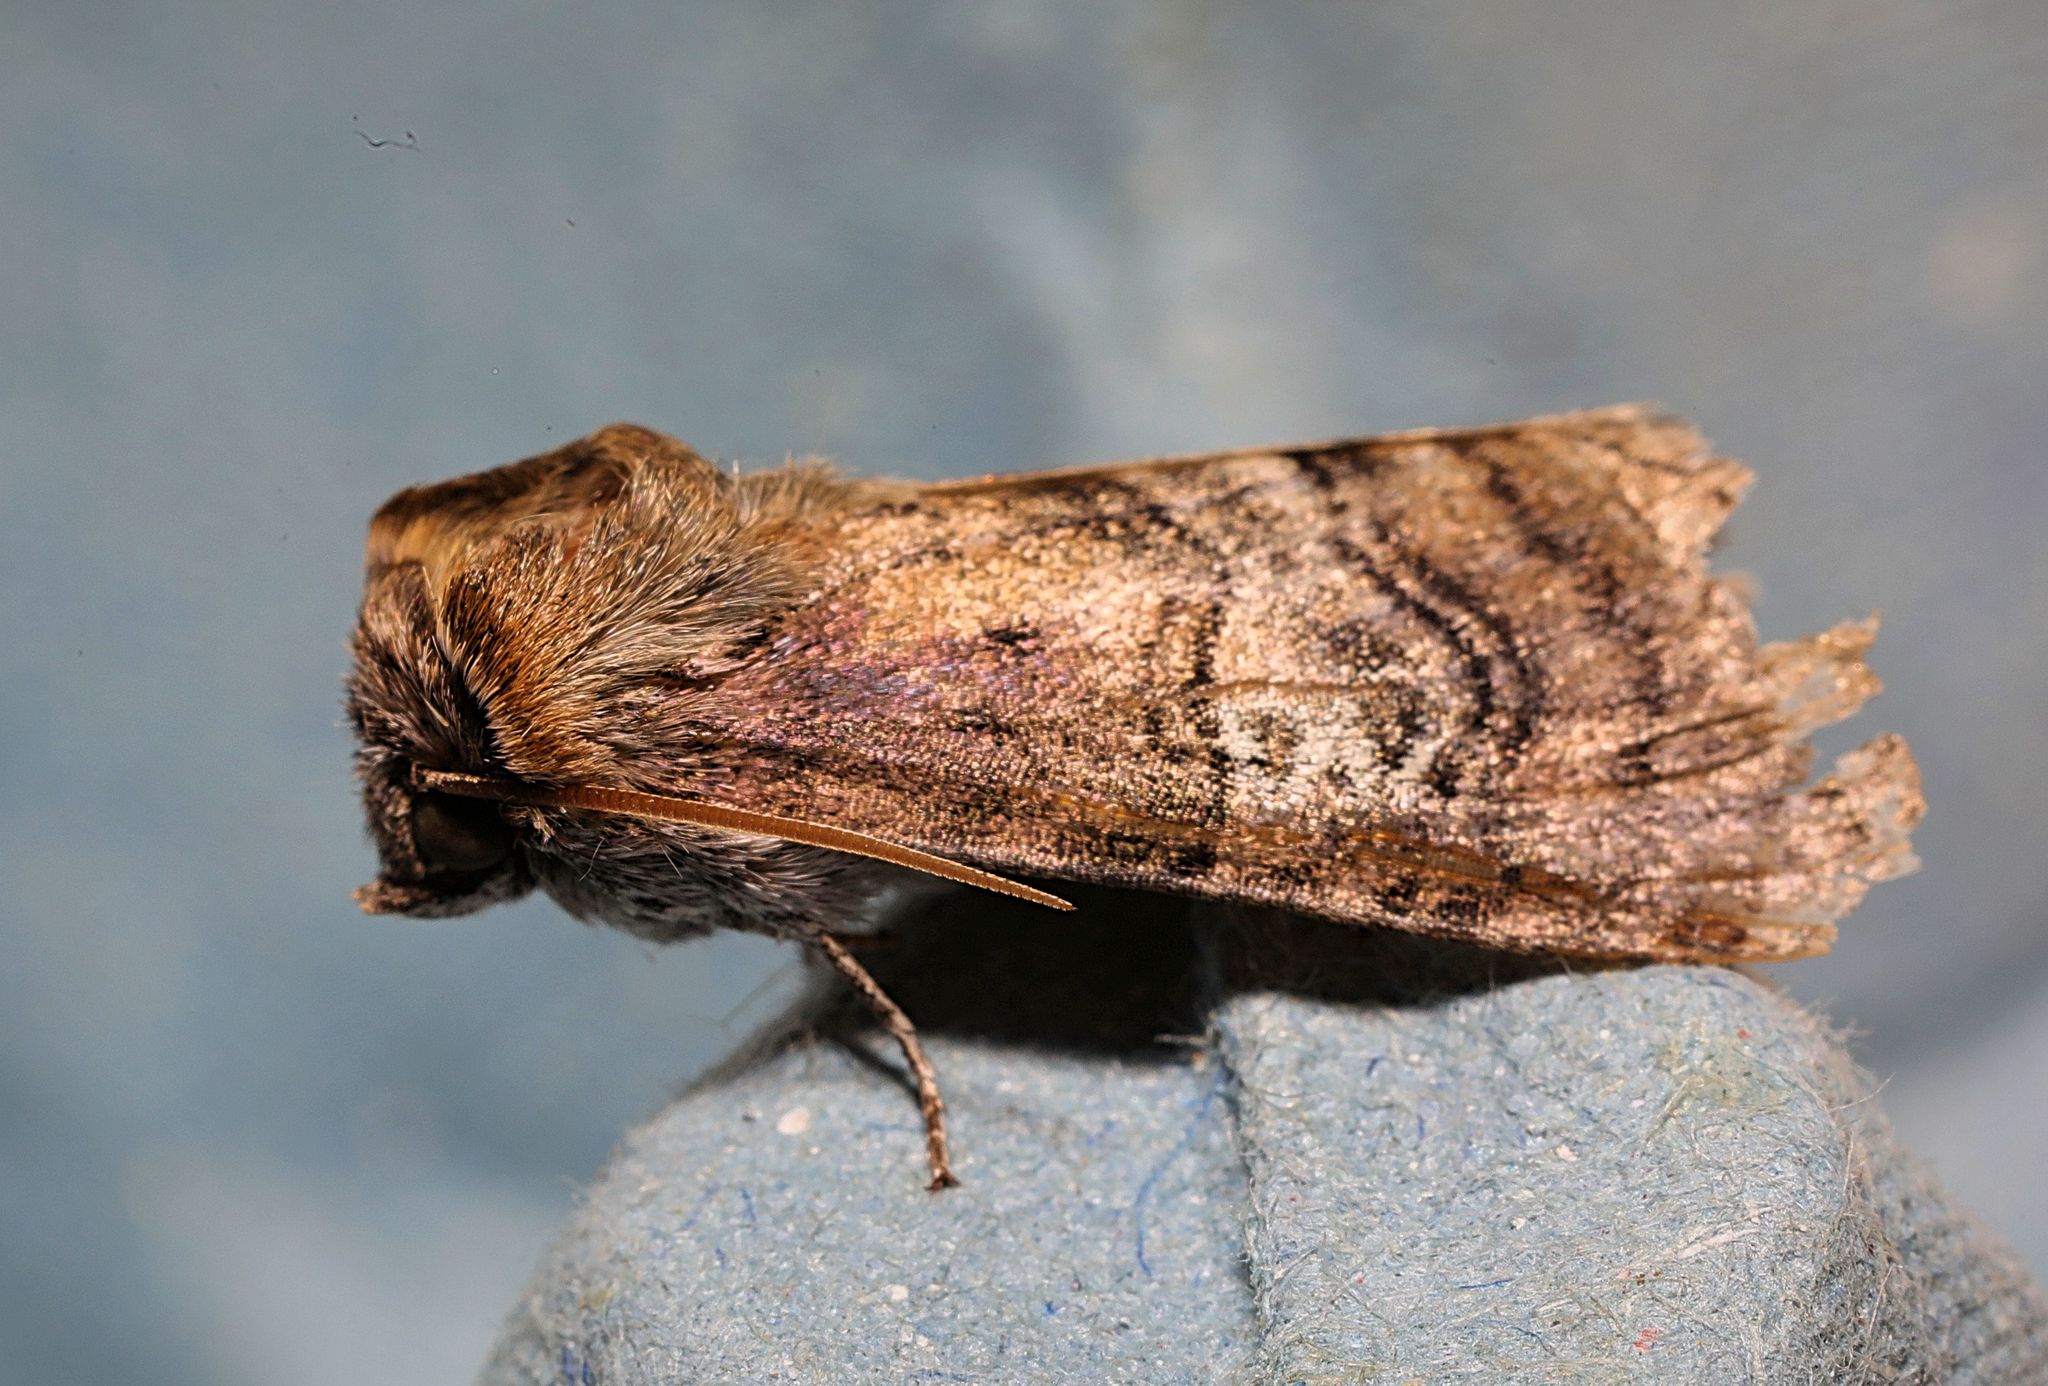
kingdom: Animalia
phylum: Arthropoda
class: Insecta
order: Lepidoptera
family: Drepanidae
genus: Tethea
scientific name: Tethea ocularis
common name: Figure of eighty
